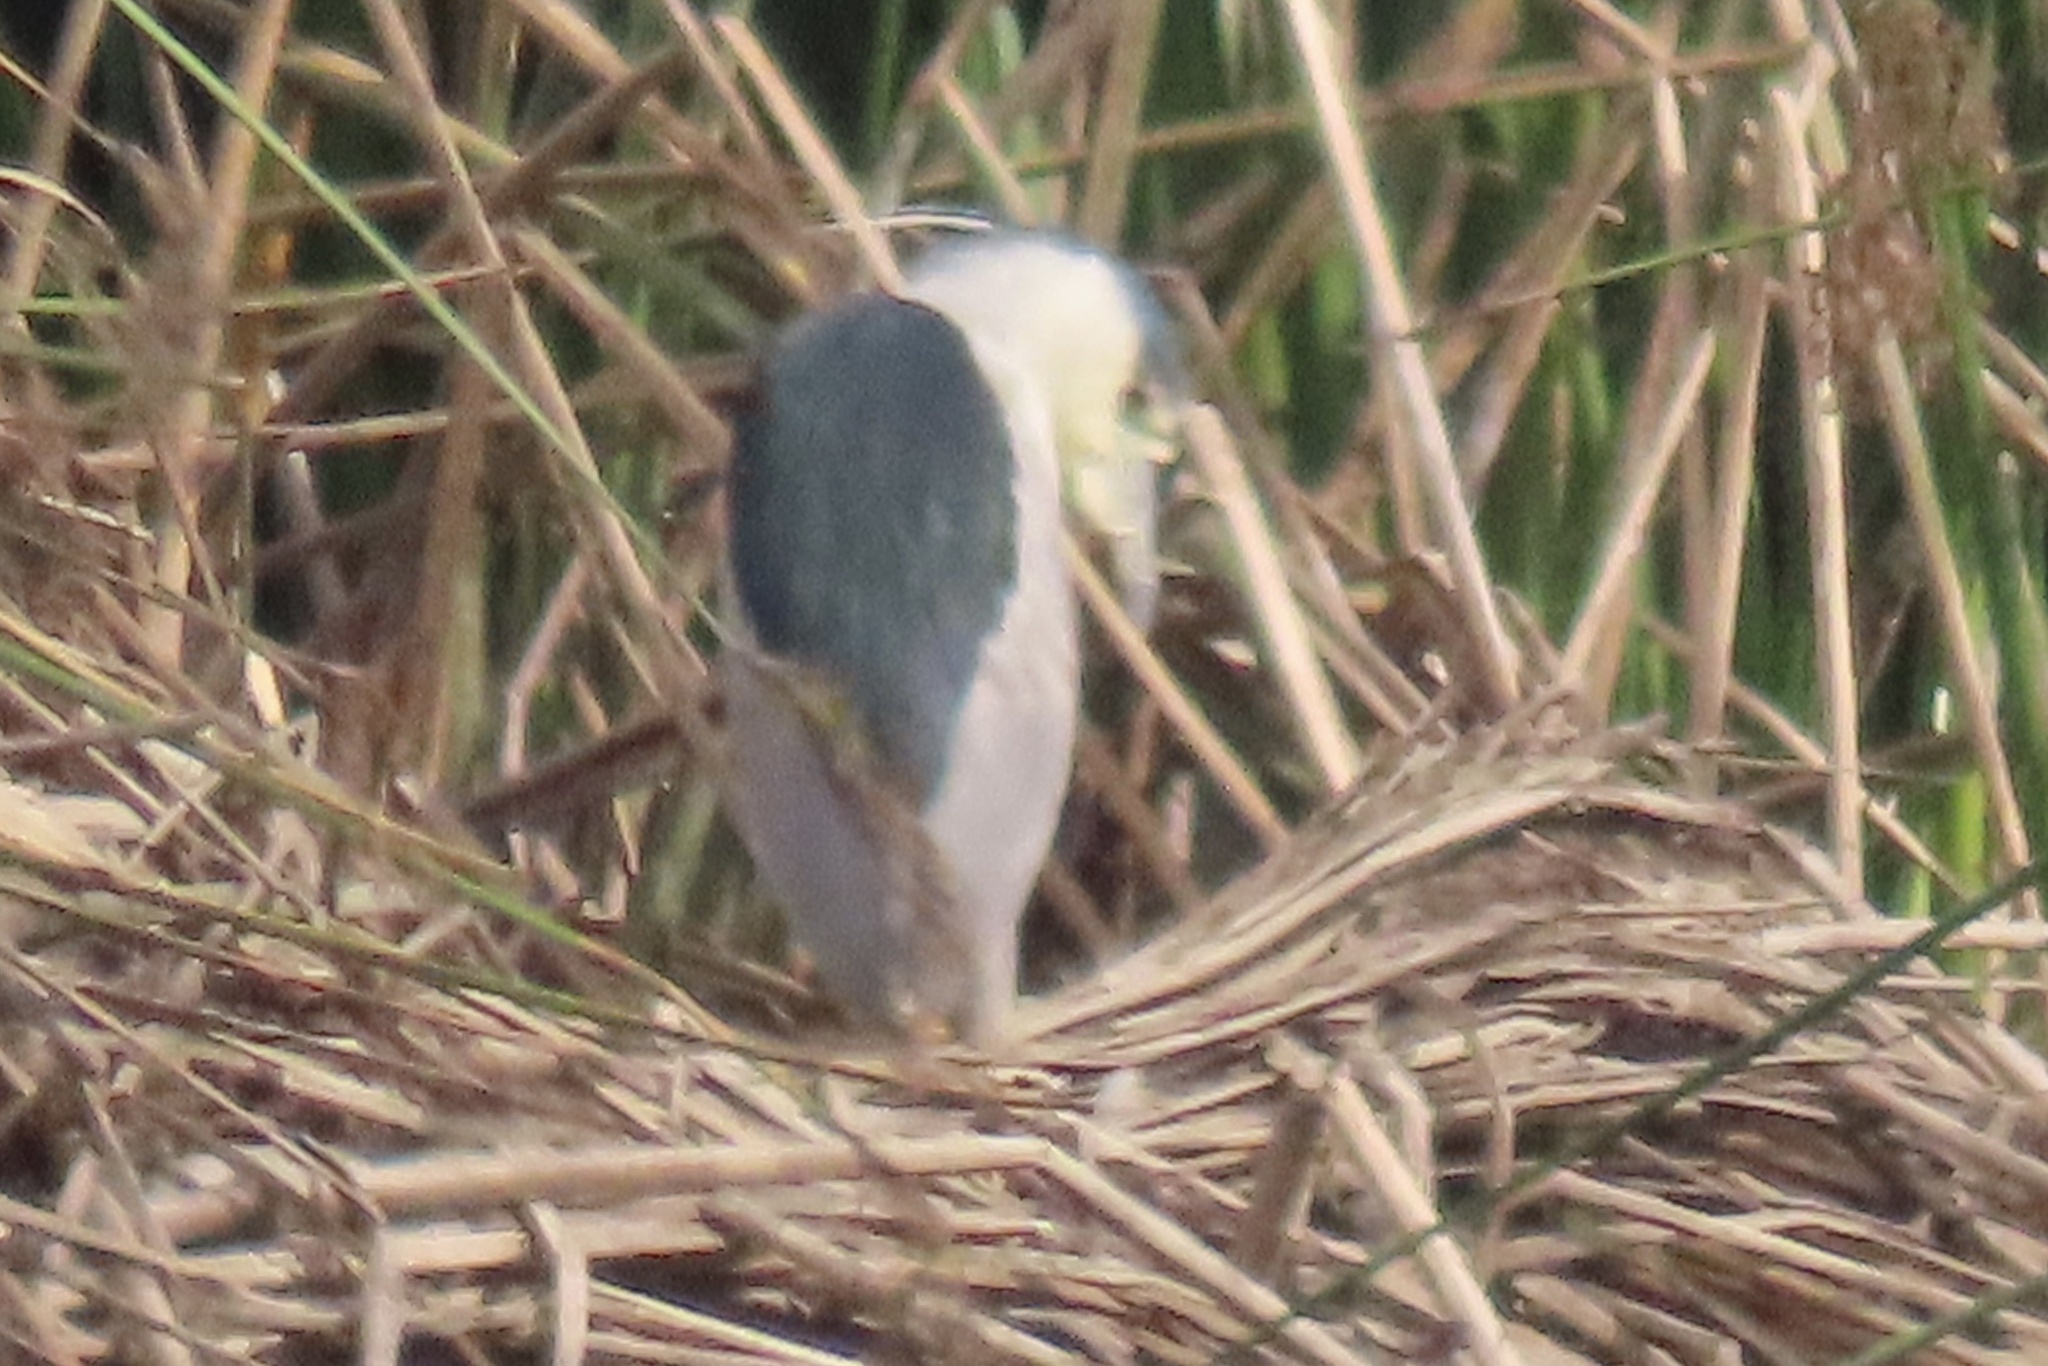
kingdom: Animalia
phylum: Chordata
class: Aves
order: Pelecaniformes
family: Ardeidae
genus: Nycticorax
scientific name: Nycticorax nycticorax
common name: Black-crowned night heron
